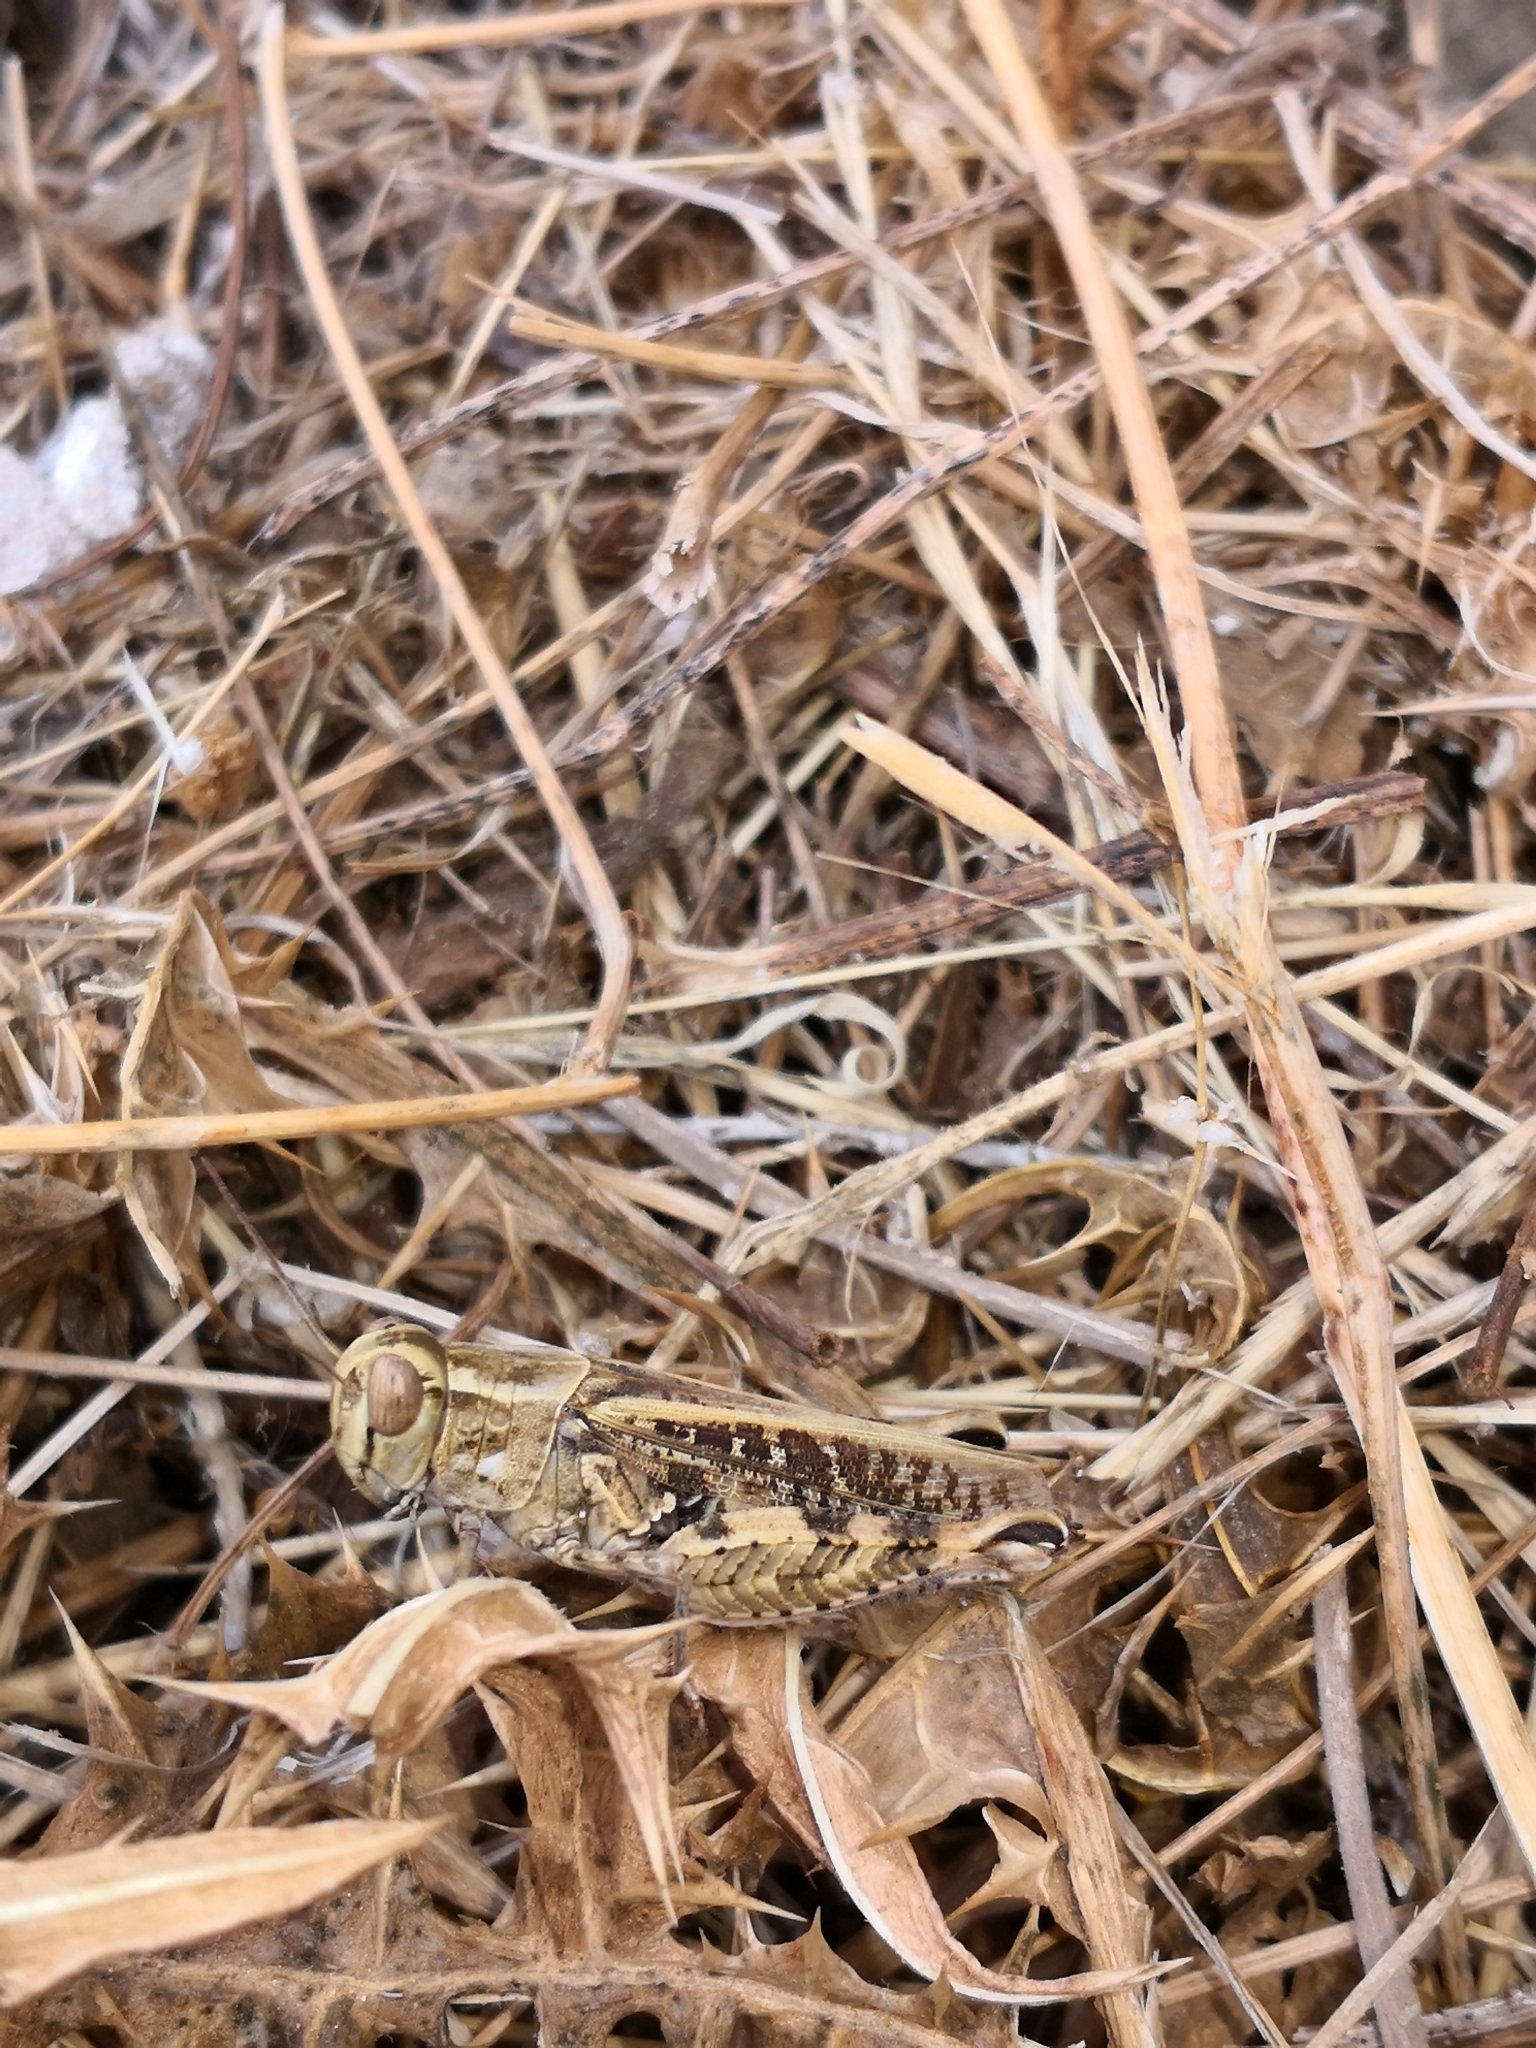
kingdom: Animalia
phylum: Arthropoda
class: Insecta
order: Orthoptera
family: Acrididae
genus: Calliptamus
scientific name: Calliptamus barbarus
